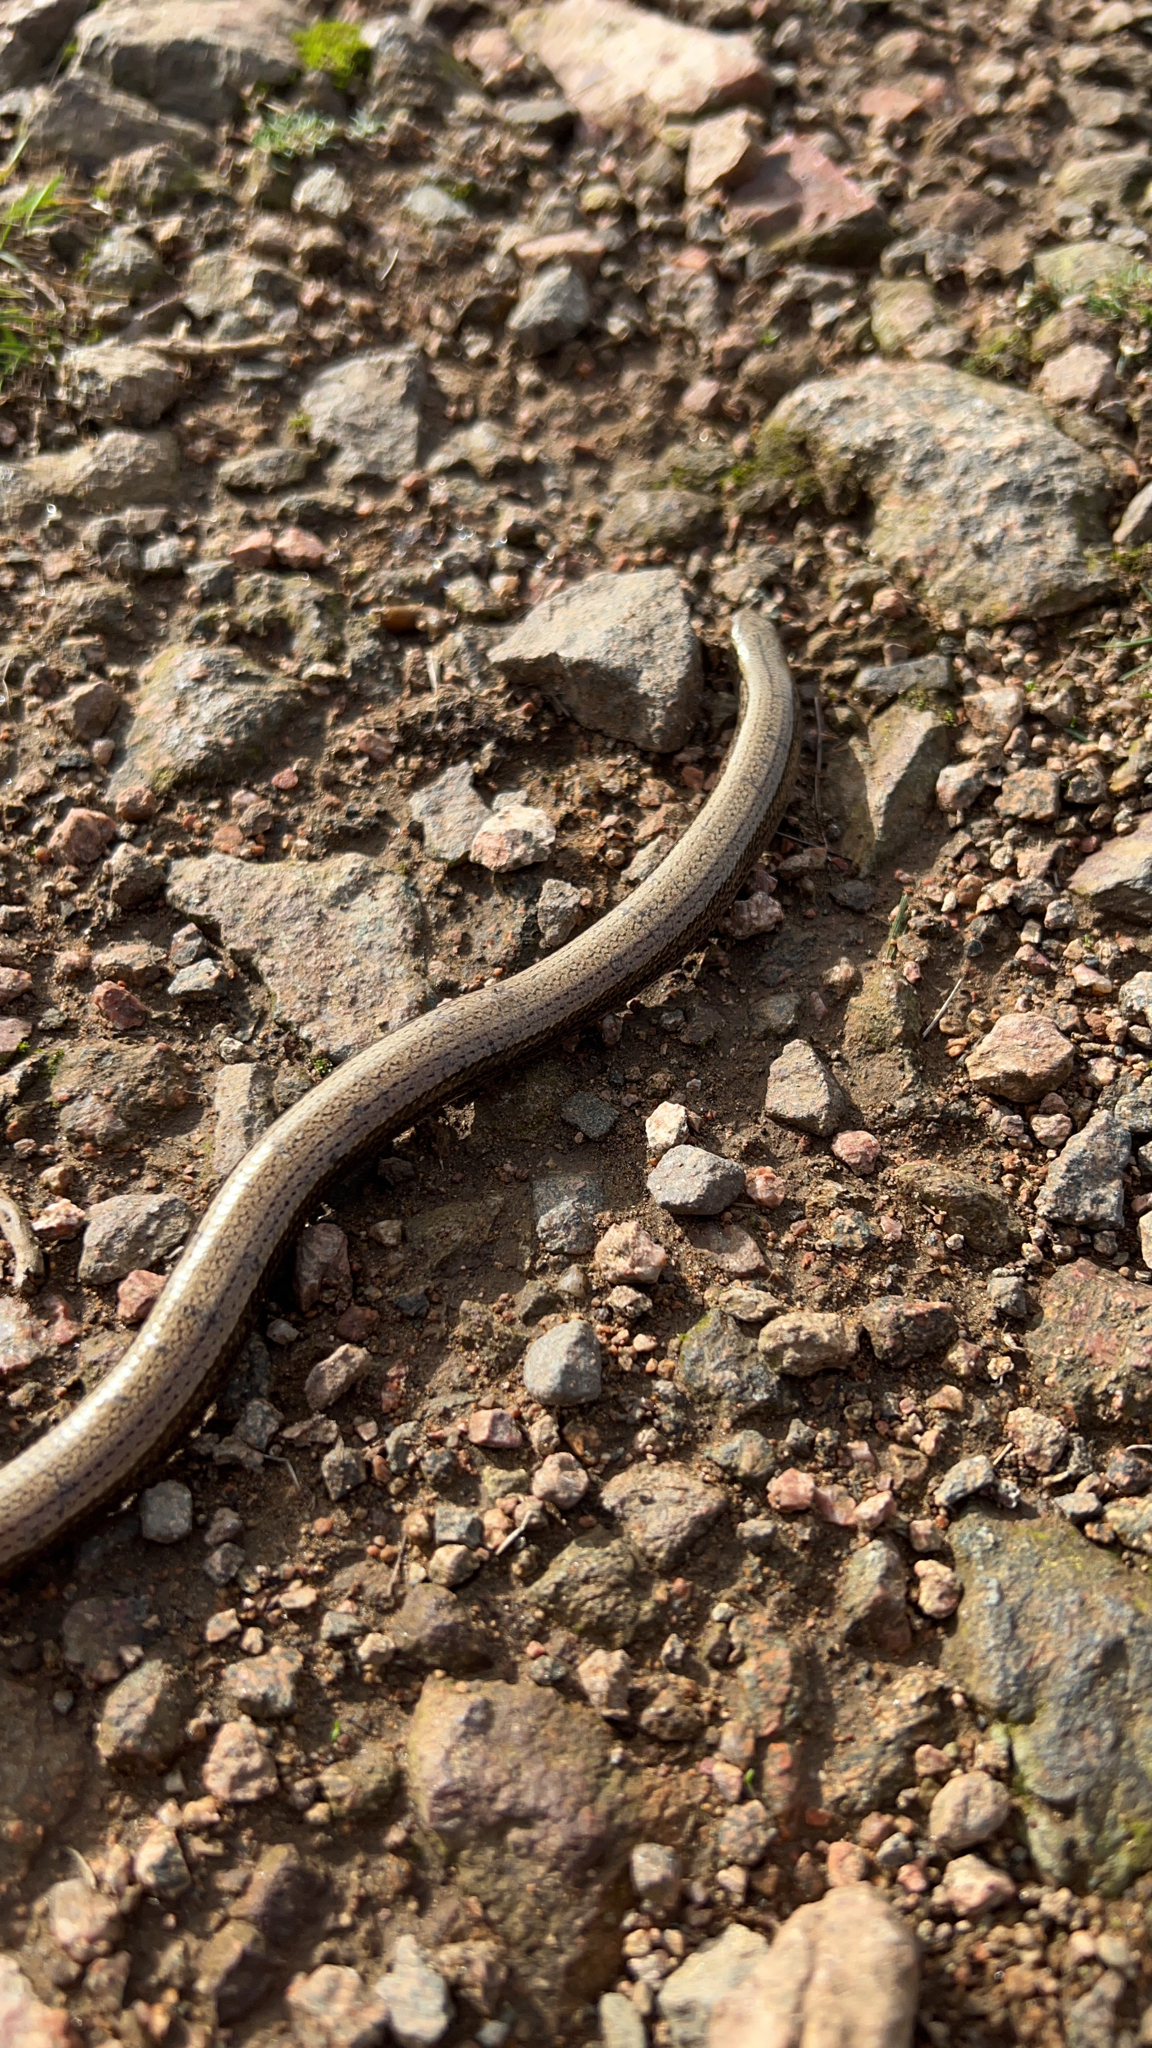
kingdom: Animalia
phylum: Chordata
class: Squamata
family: Anguidae
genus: Anguis
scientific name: Anguis fragilis
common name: Slow worm
